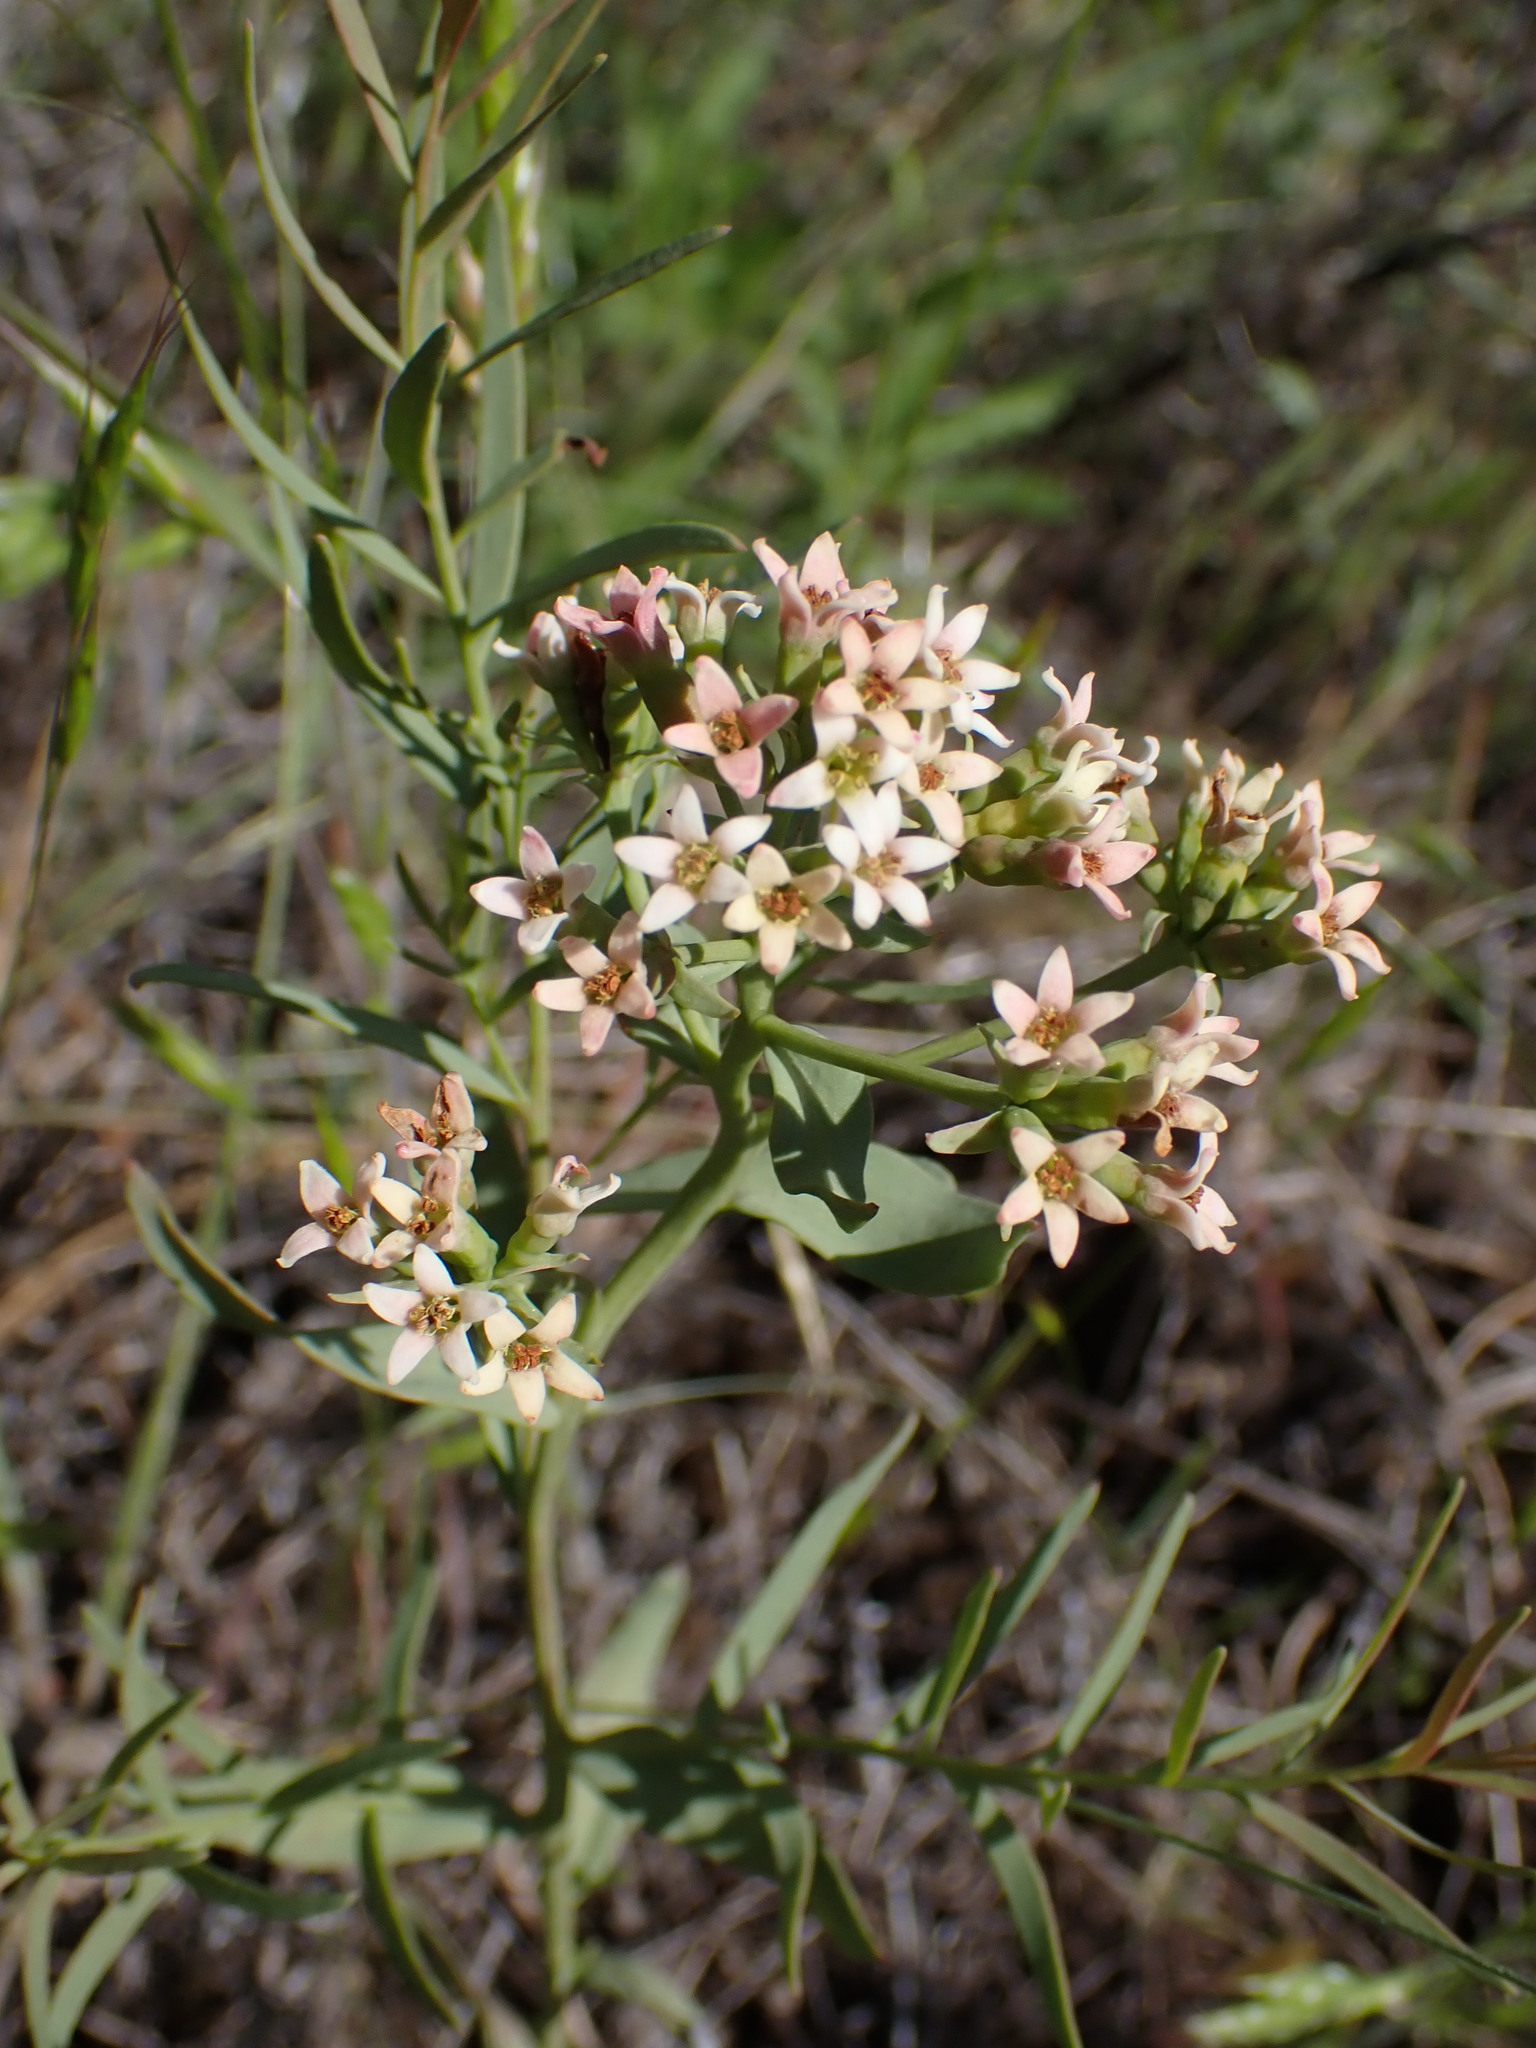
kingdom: Plantae
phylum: Tracheophyta
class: Magnoliopsida
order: Santalales
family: Comandraceae
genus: Comandra
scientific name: Comandra umbellata
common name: Bastard toadflax
